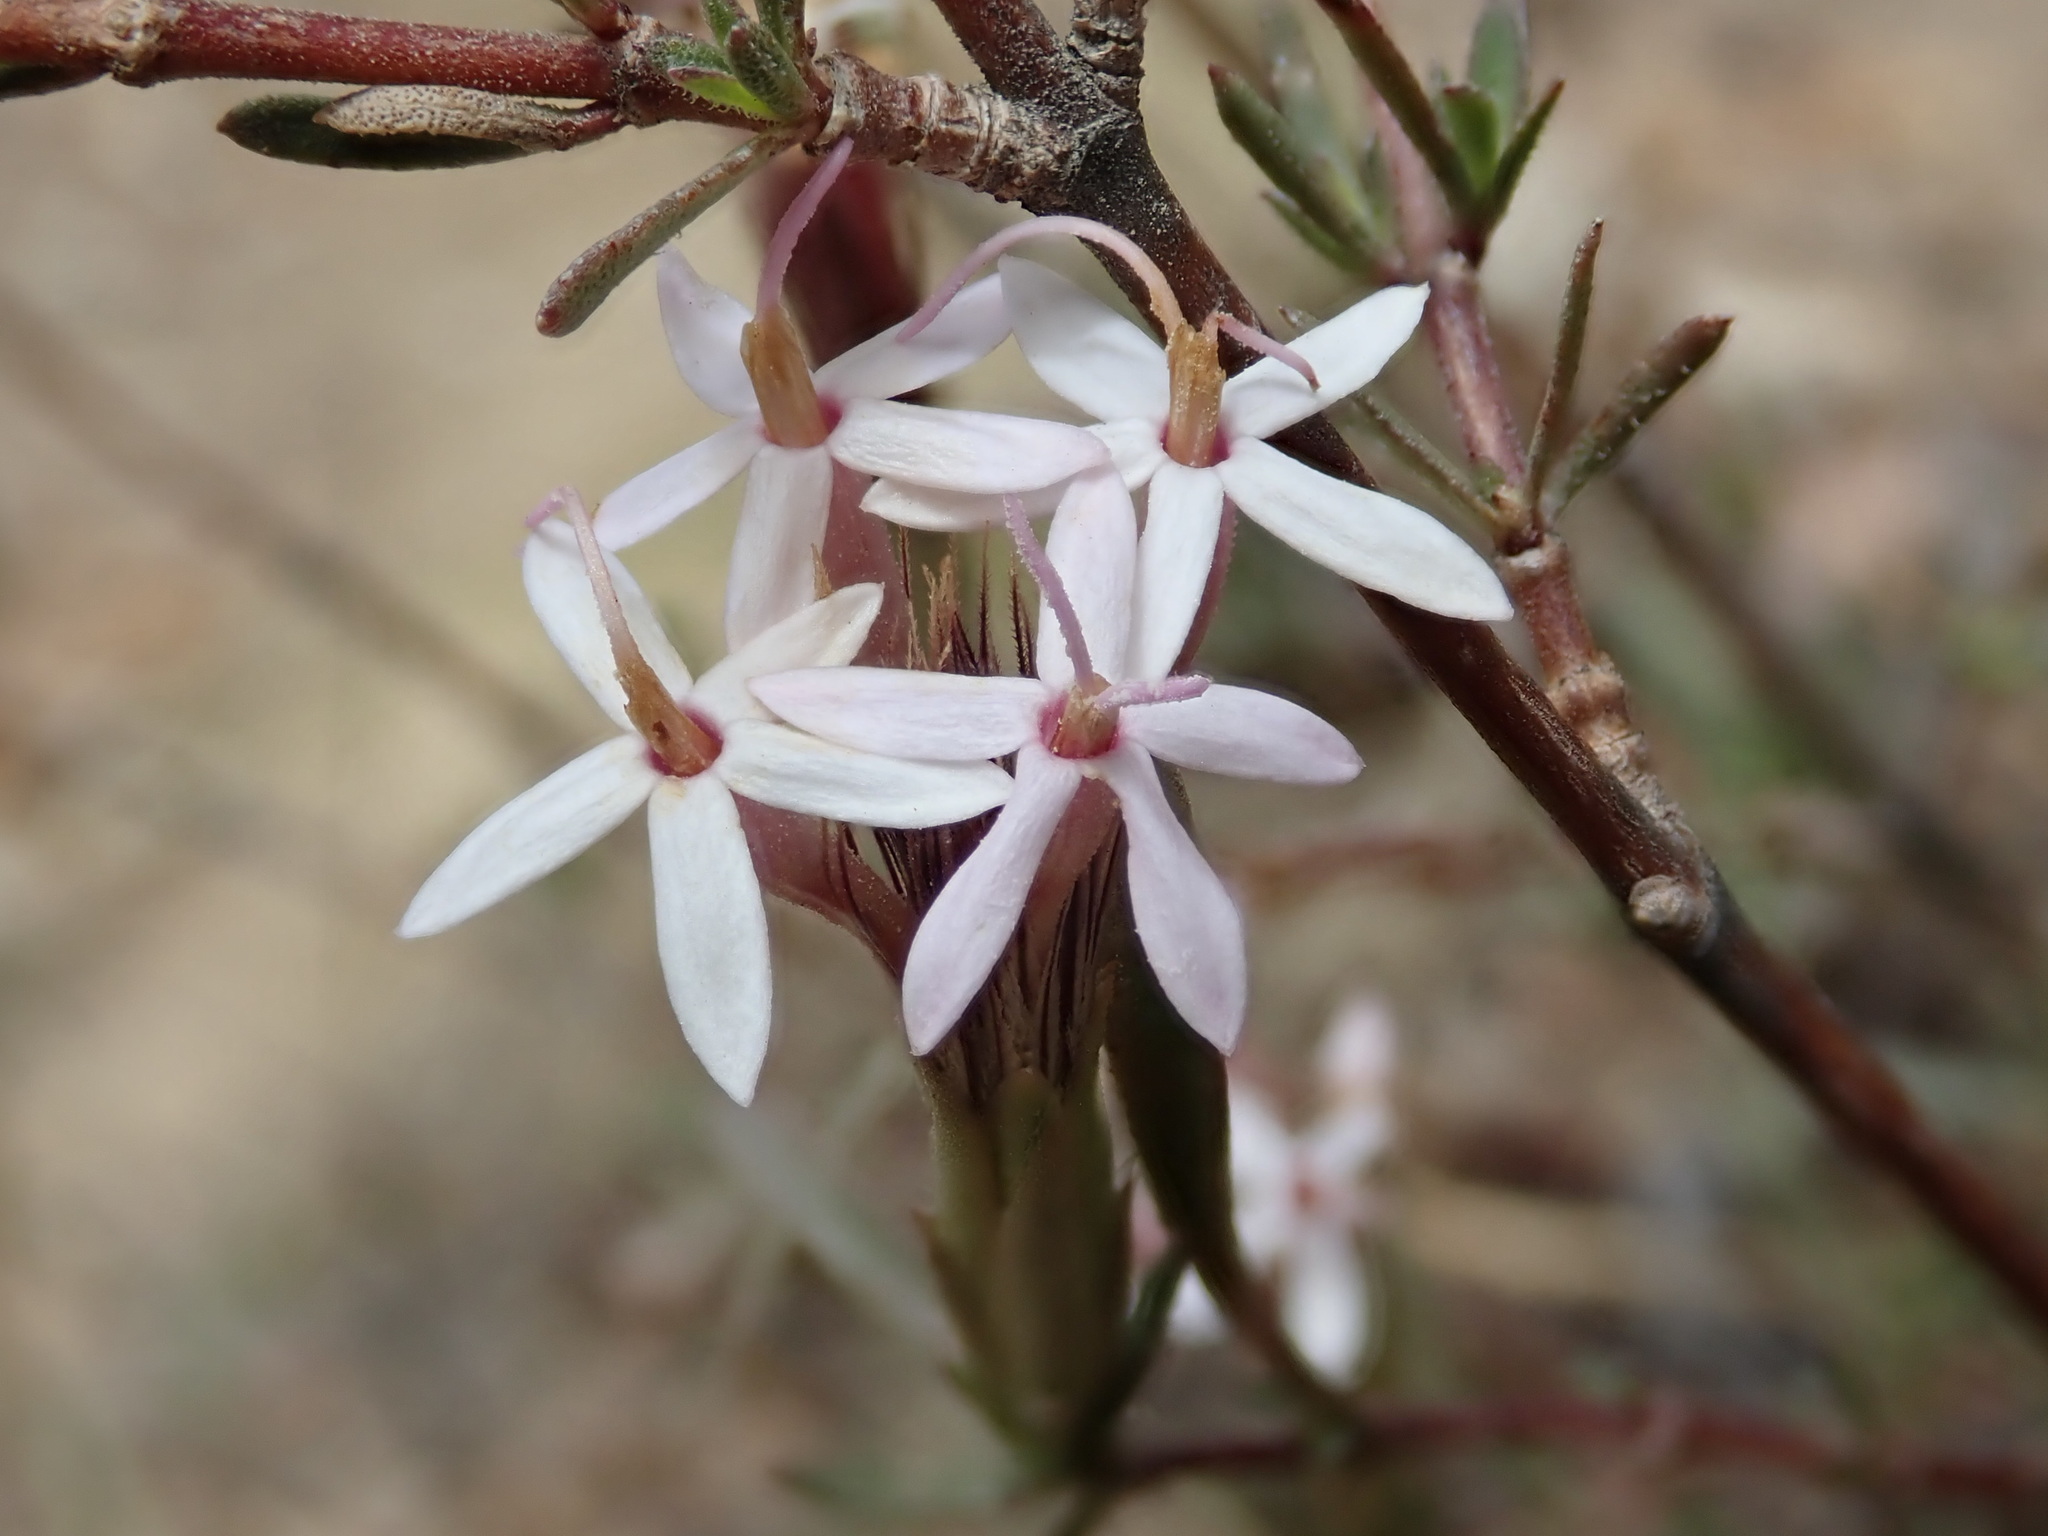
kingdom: Plantae
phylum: Tracheophyta
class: Magnoliopsida
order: Asterales
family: Asteraceae
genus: Carphochaete
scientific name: Carphochaete bigelovii
